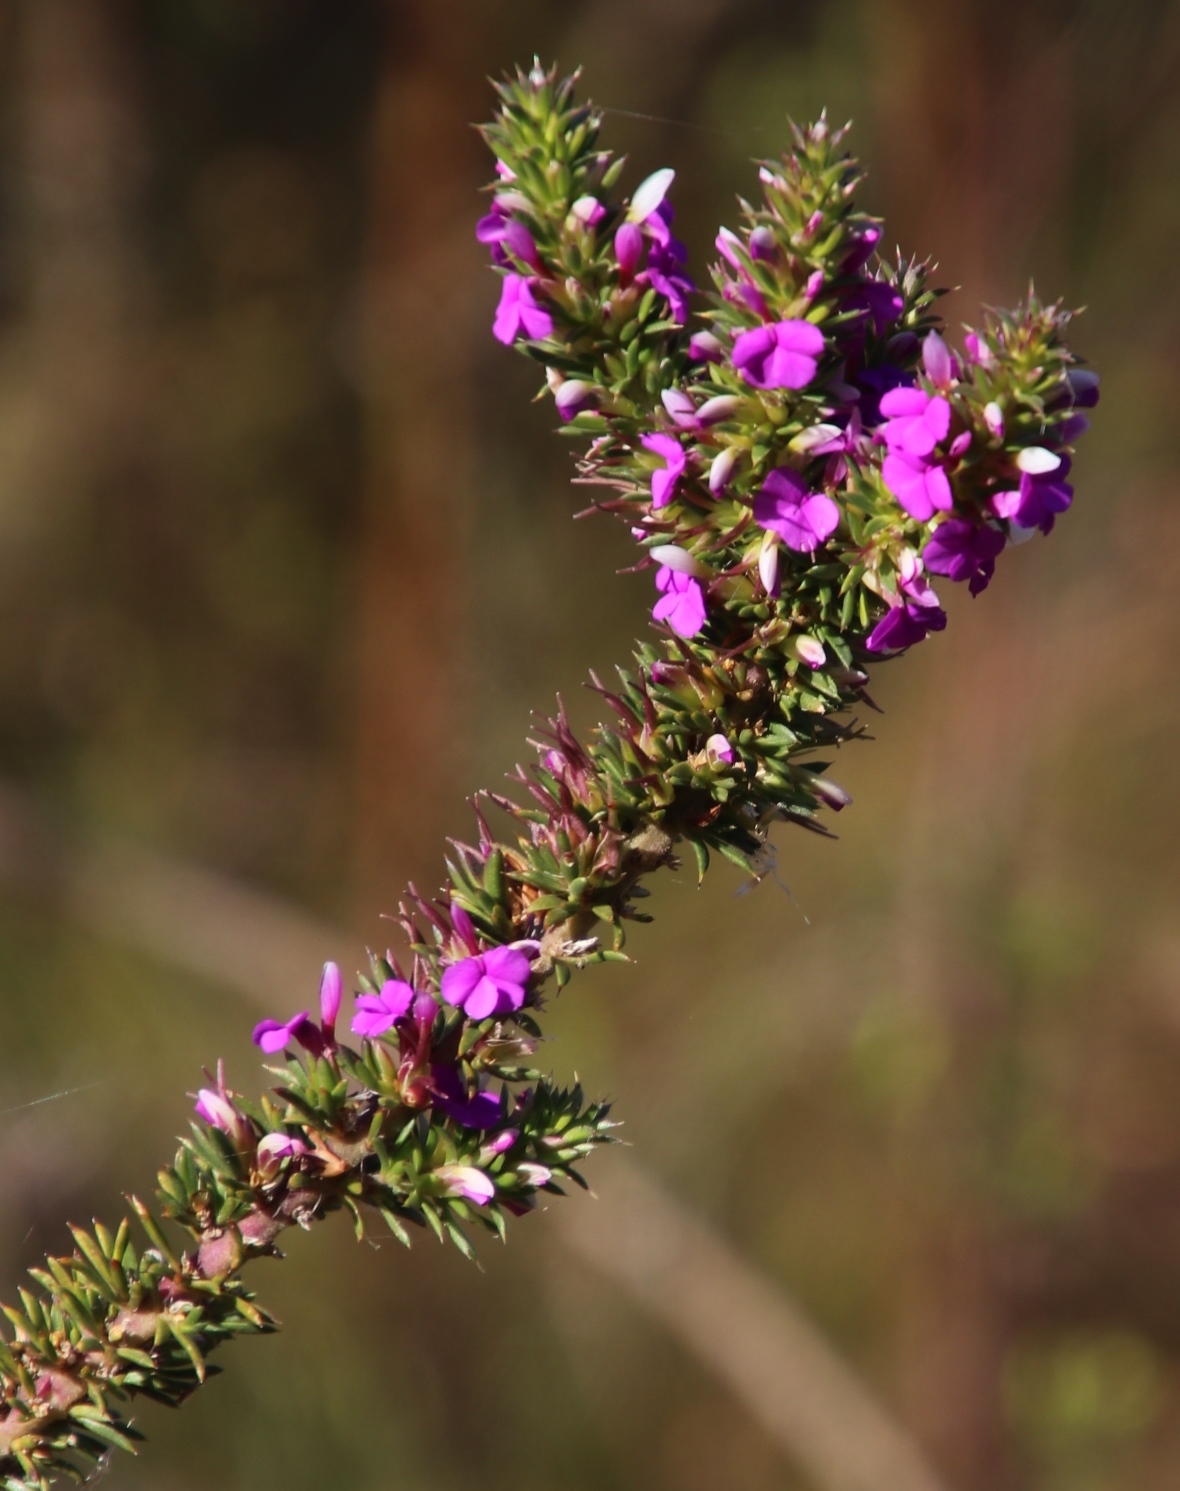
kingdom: Plantae
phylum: Tracheophyta
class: Magnoliopsida
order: Fabales
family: Polygalaceae
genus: Muraltia
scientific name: Muraltia heisteria
